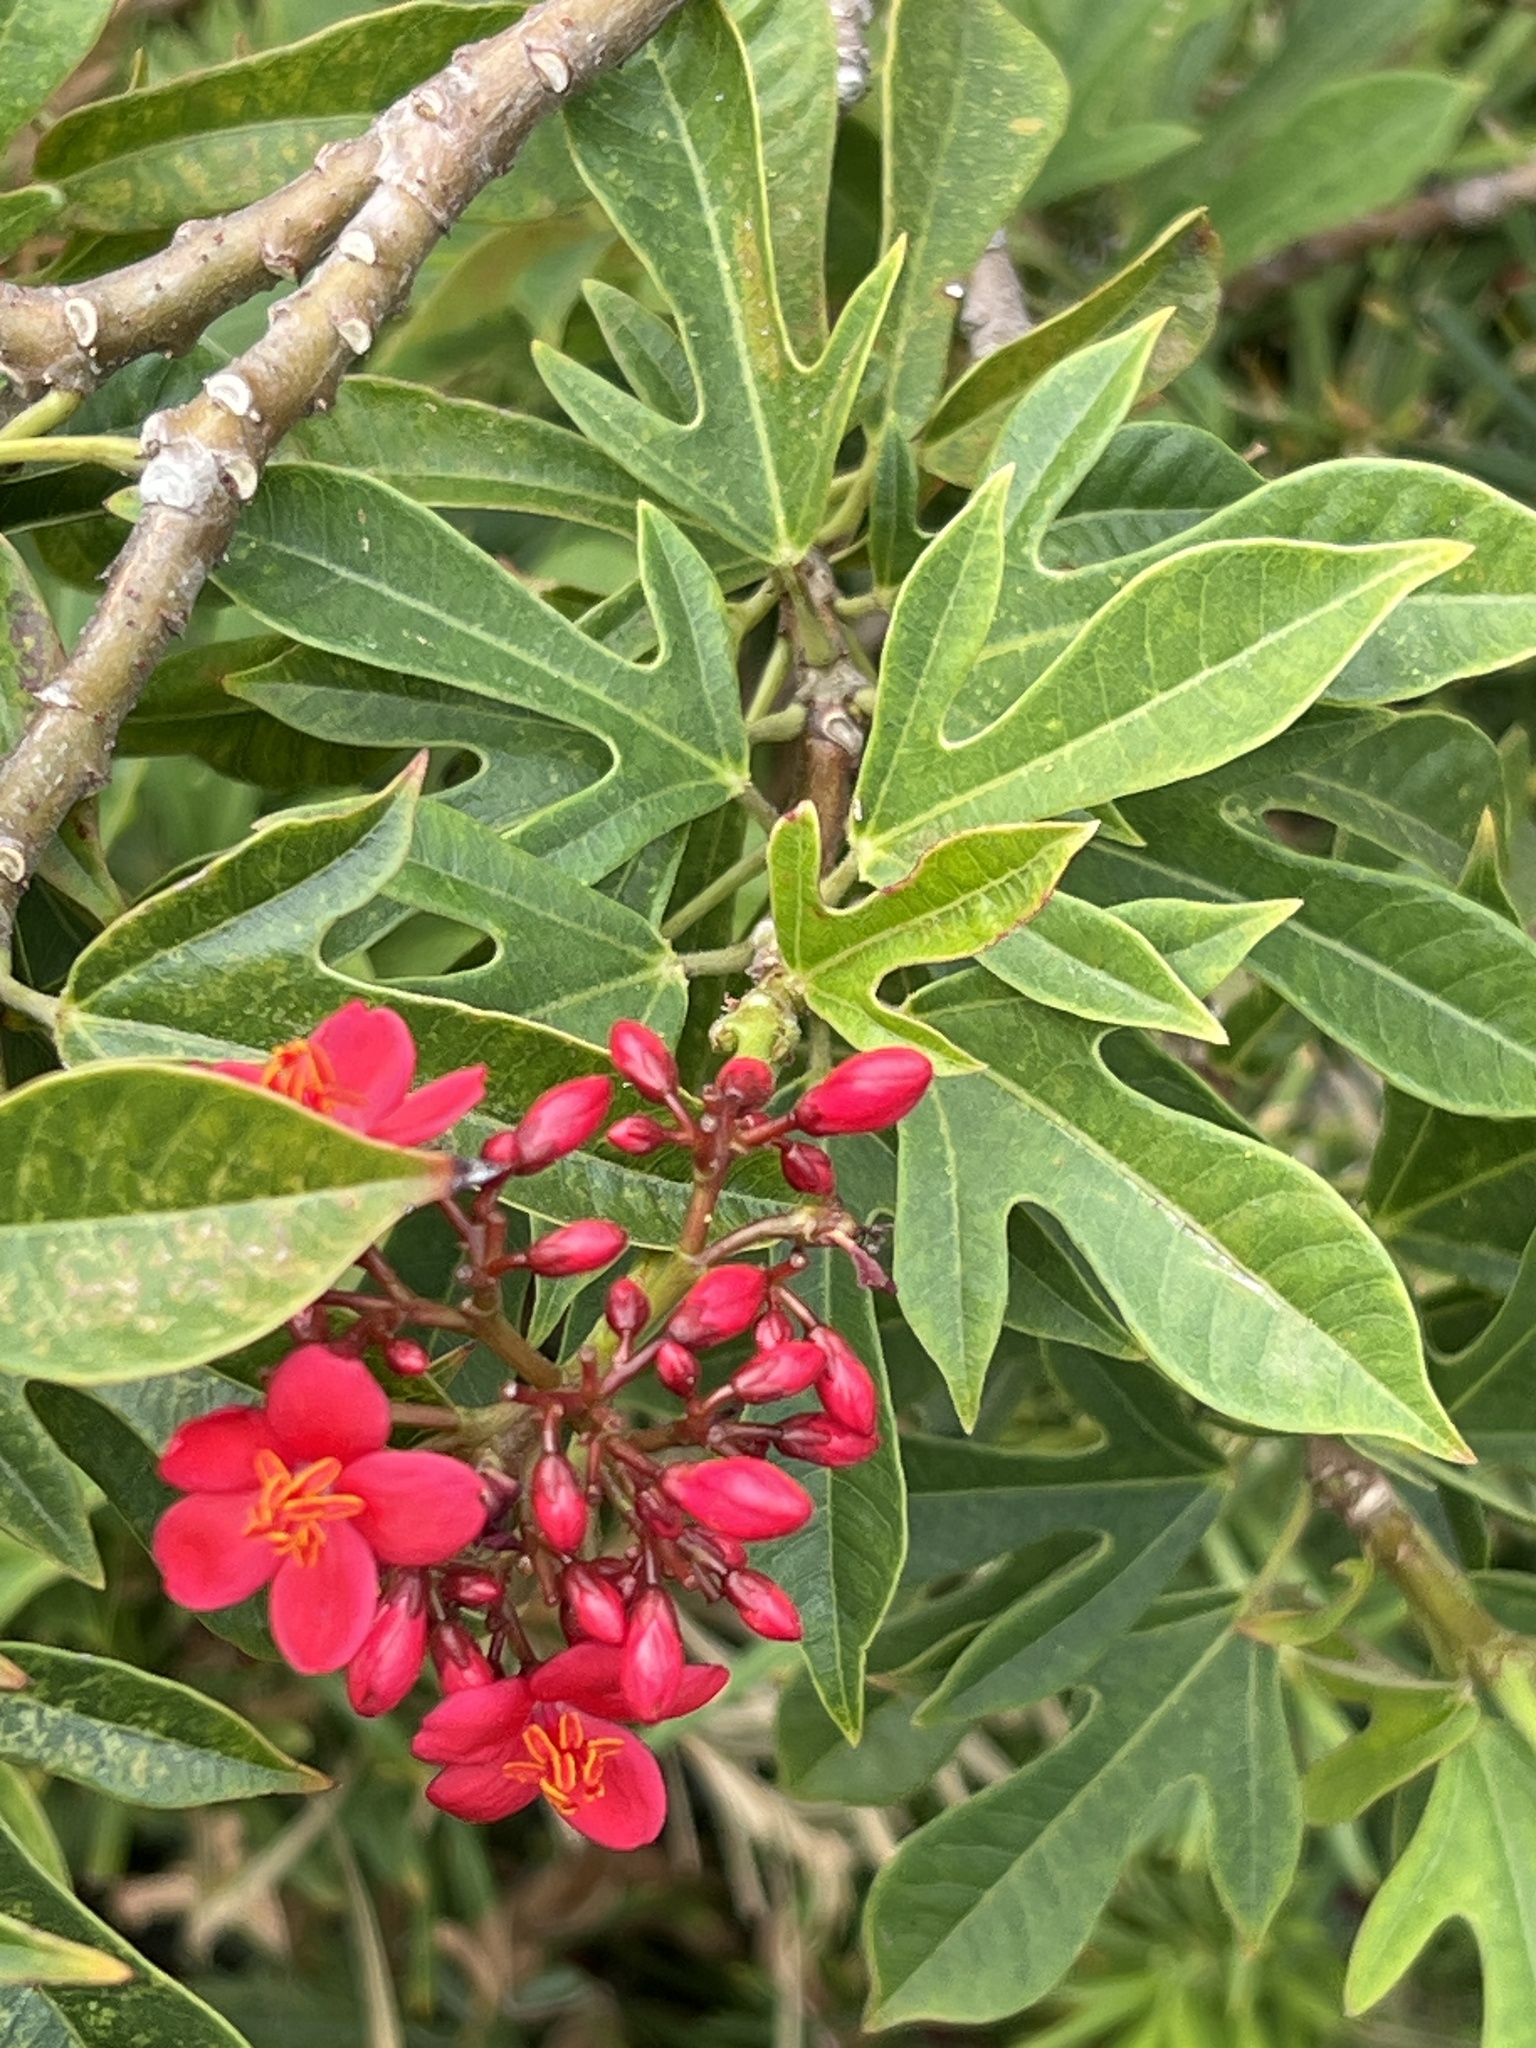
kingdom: Plantae
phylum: Tracheophyta
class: Magnoliopsida
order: Malpighiales
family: Euphorbiaceae
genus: Jatropha
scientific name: Jatropha integerrima
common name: Peregrina
